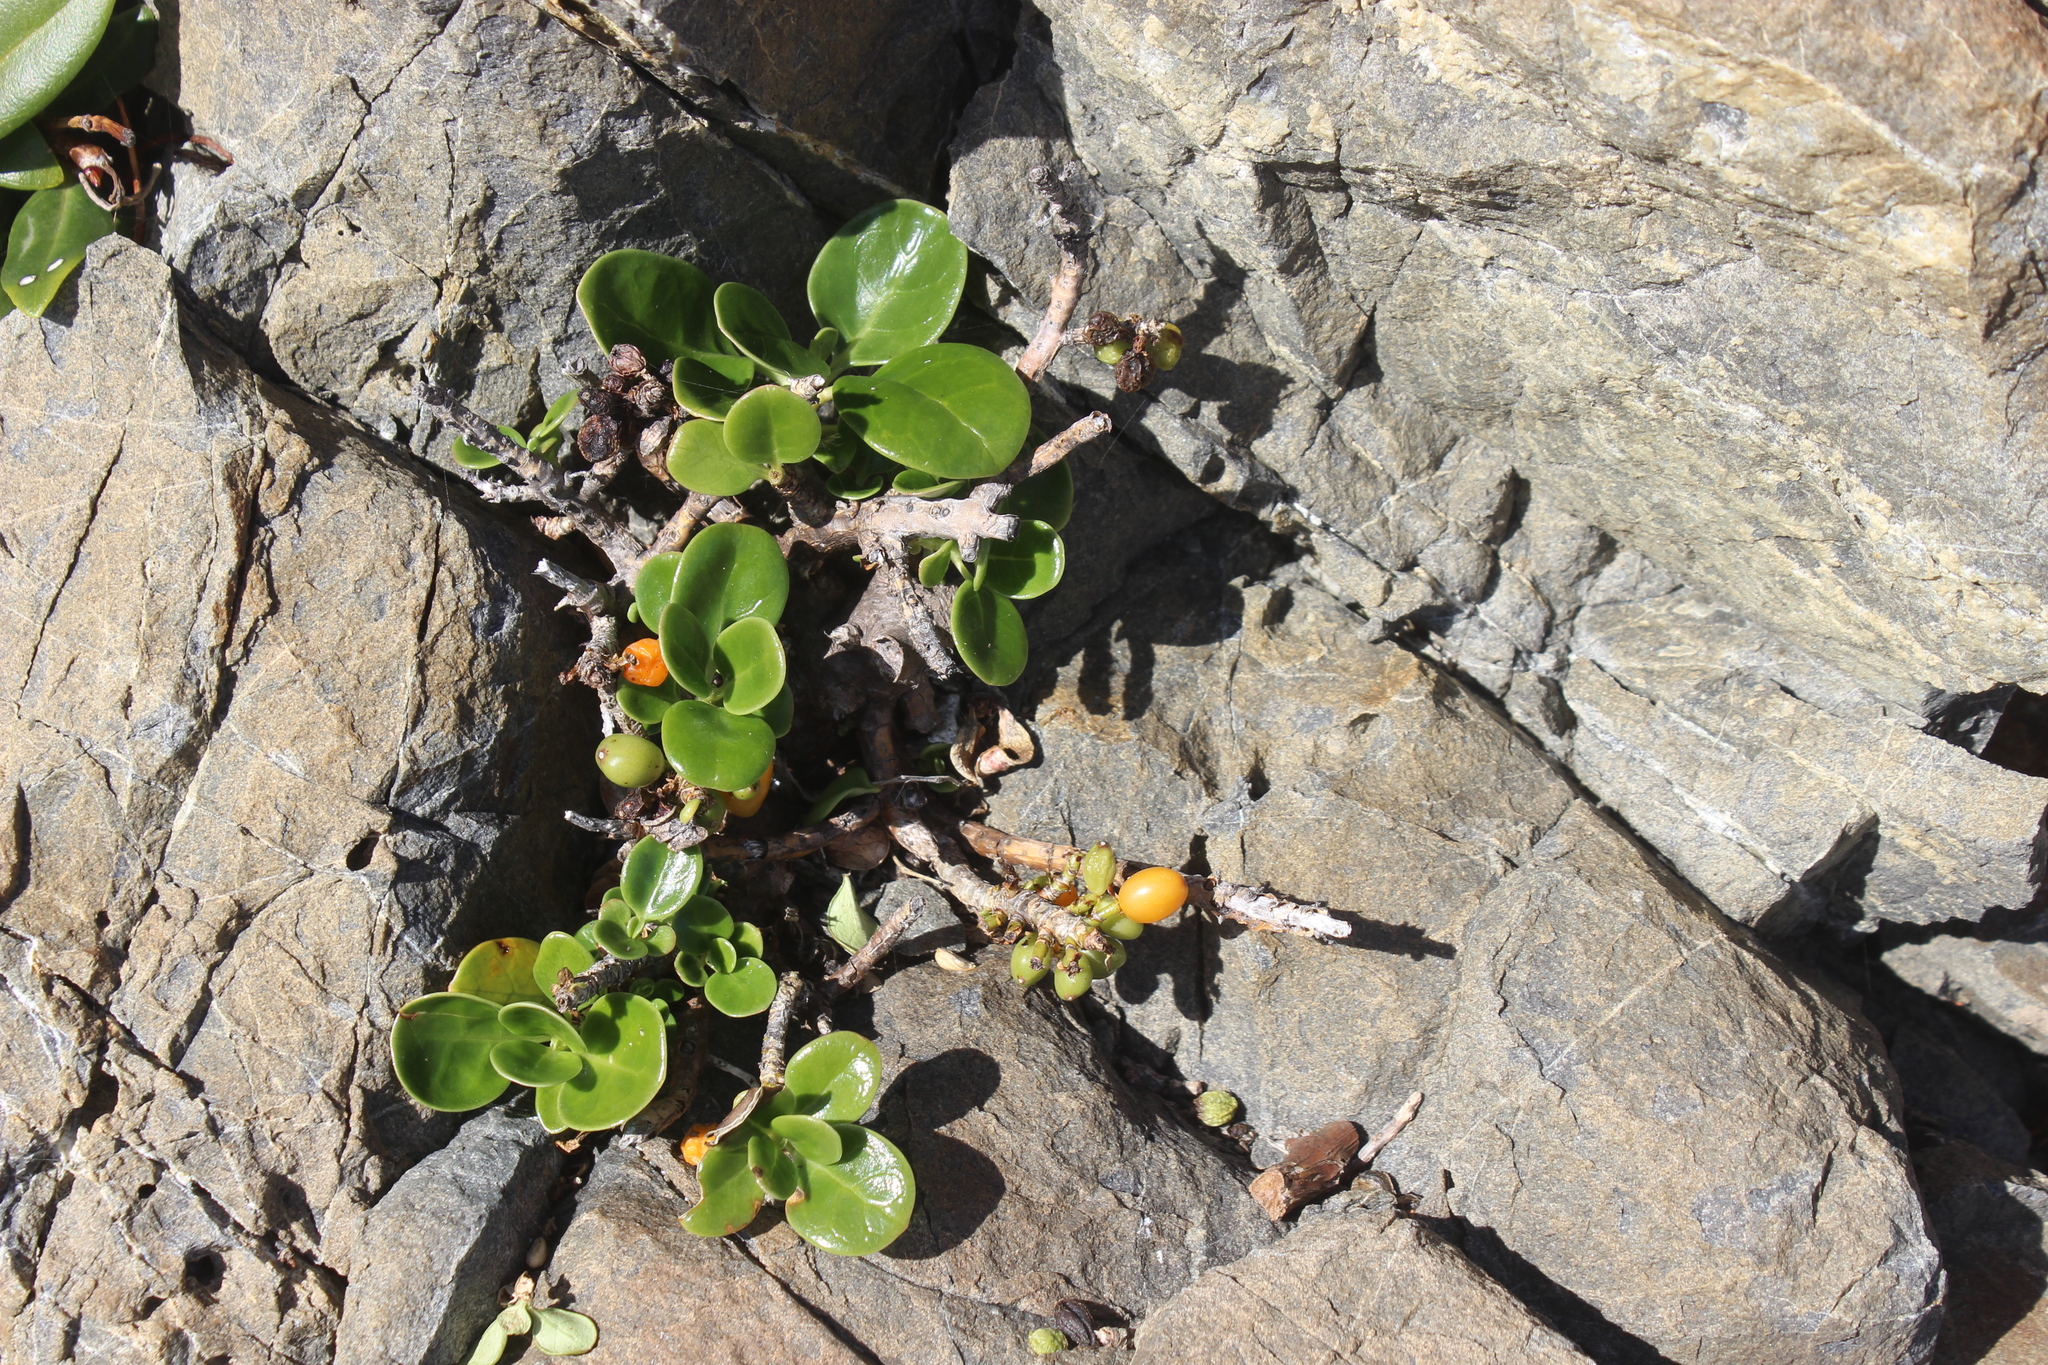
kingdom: Plantae
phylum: Tracheophyta
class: Magnoliopsida
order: Gentianales
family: Rubiaceae
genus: Coprosma
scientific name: Coprosma repens
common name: Tree bedstraw
